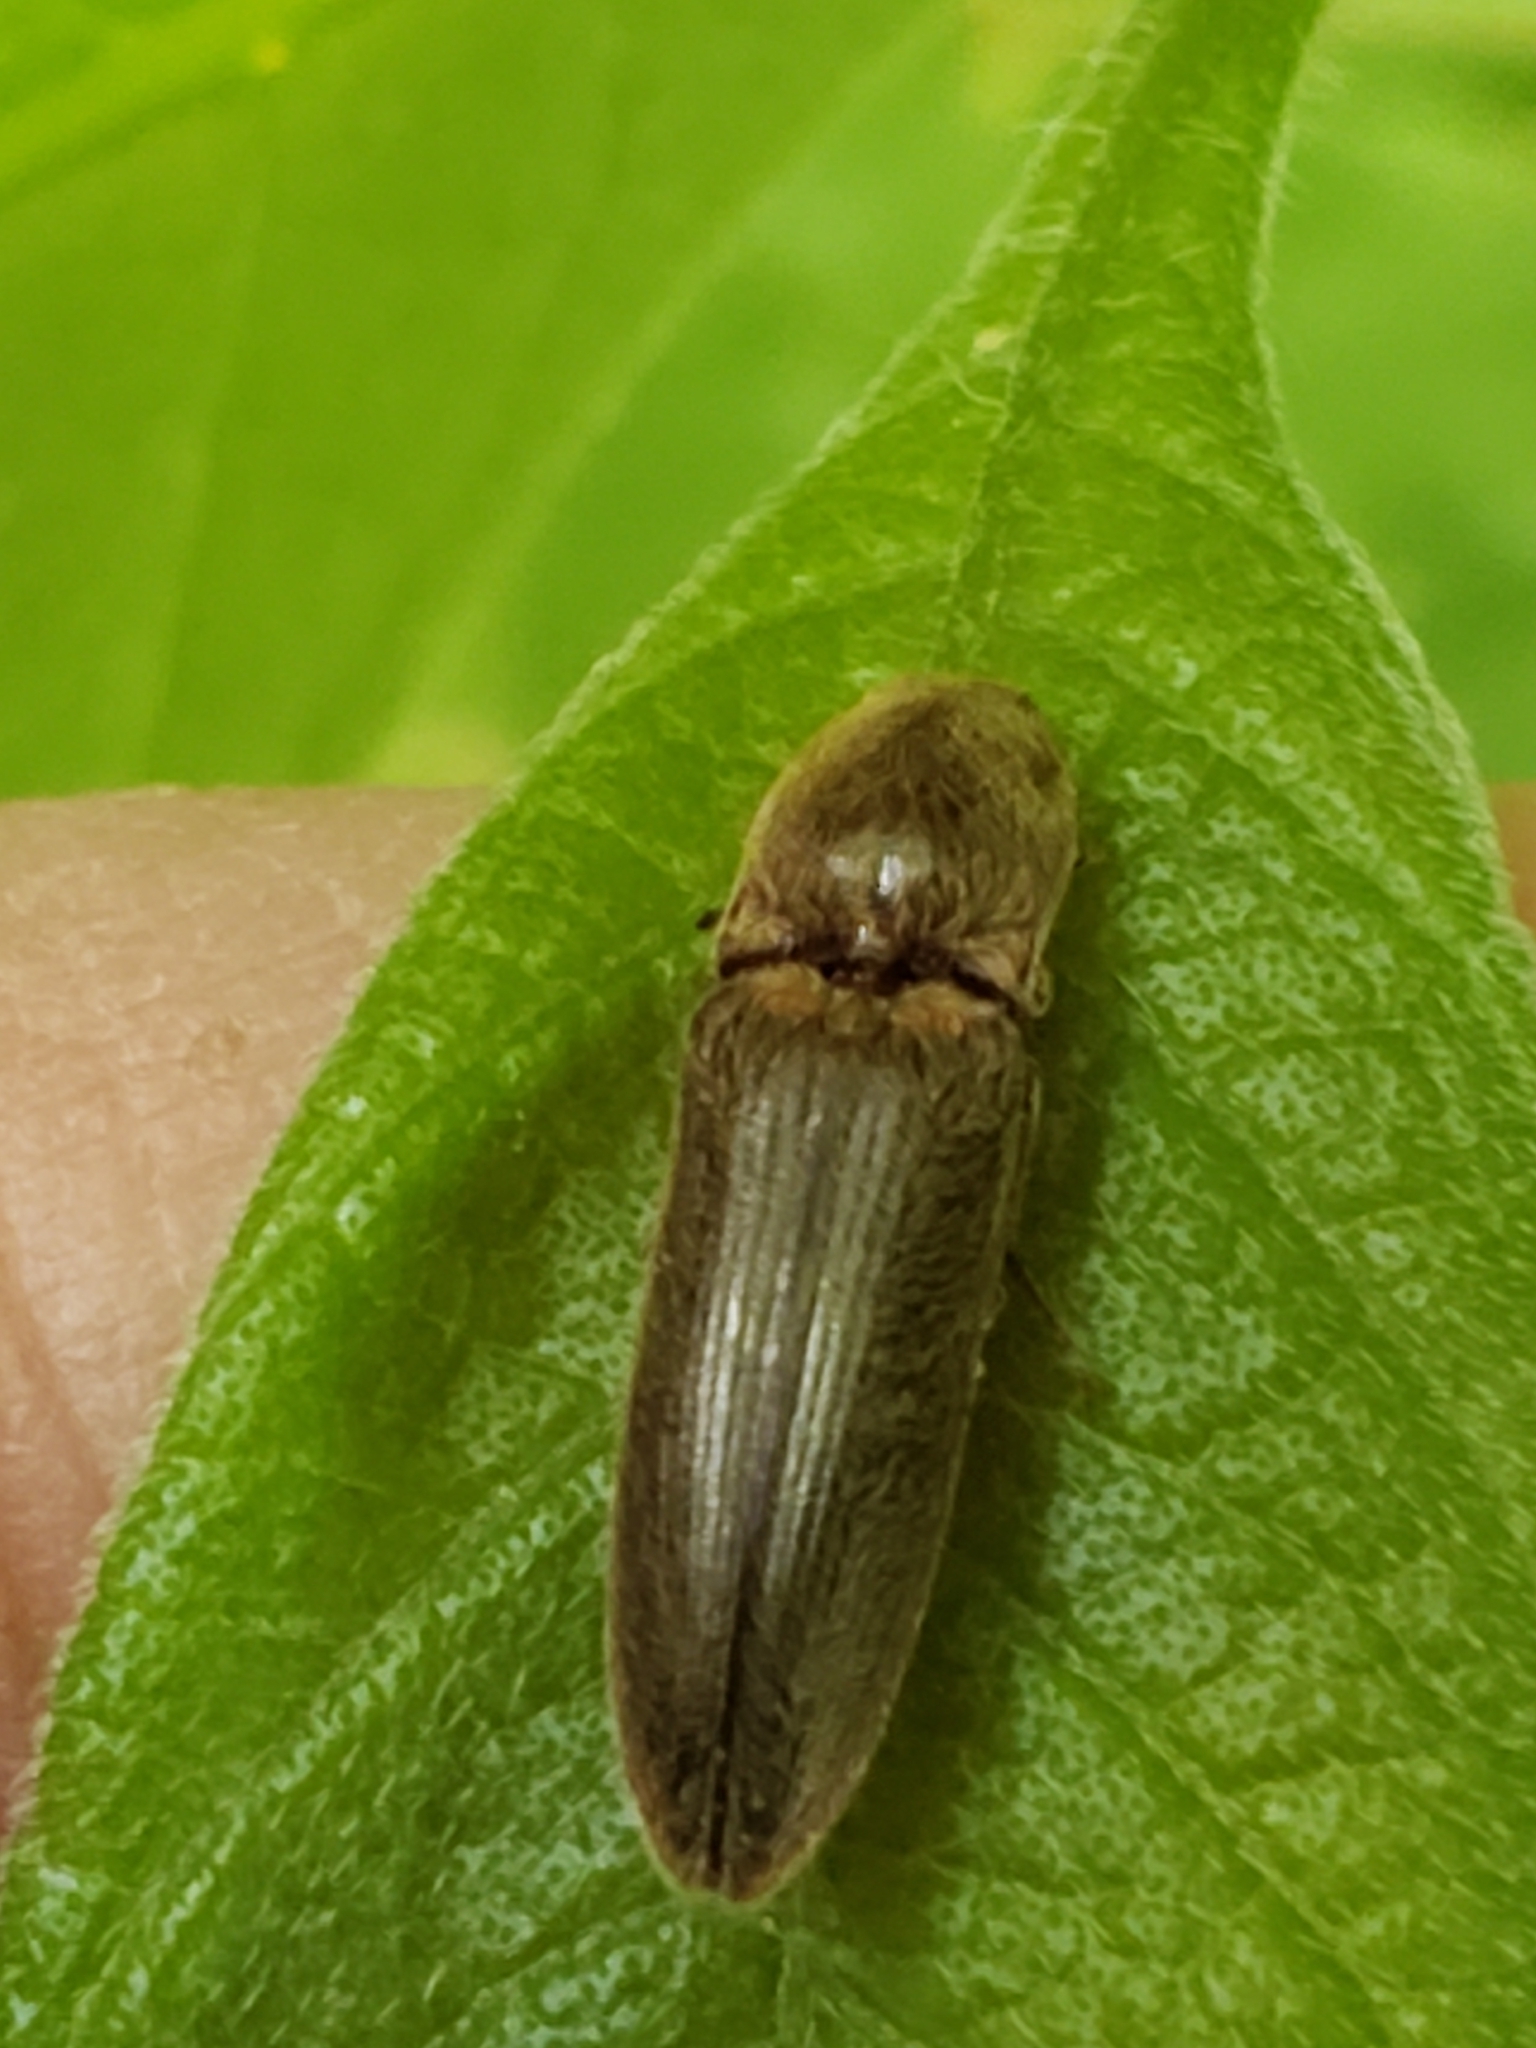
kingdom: Animalia
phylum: Arthropoda
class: Insecta
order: Coleoptera
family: Elateridae
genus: Gambrinus
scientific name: Gambrinus griseus
